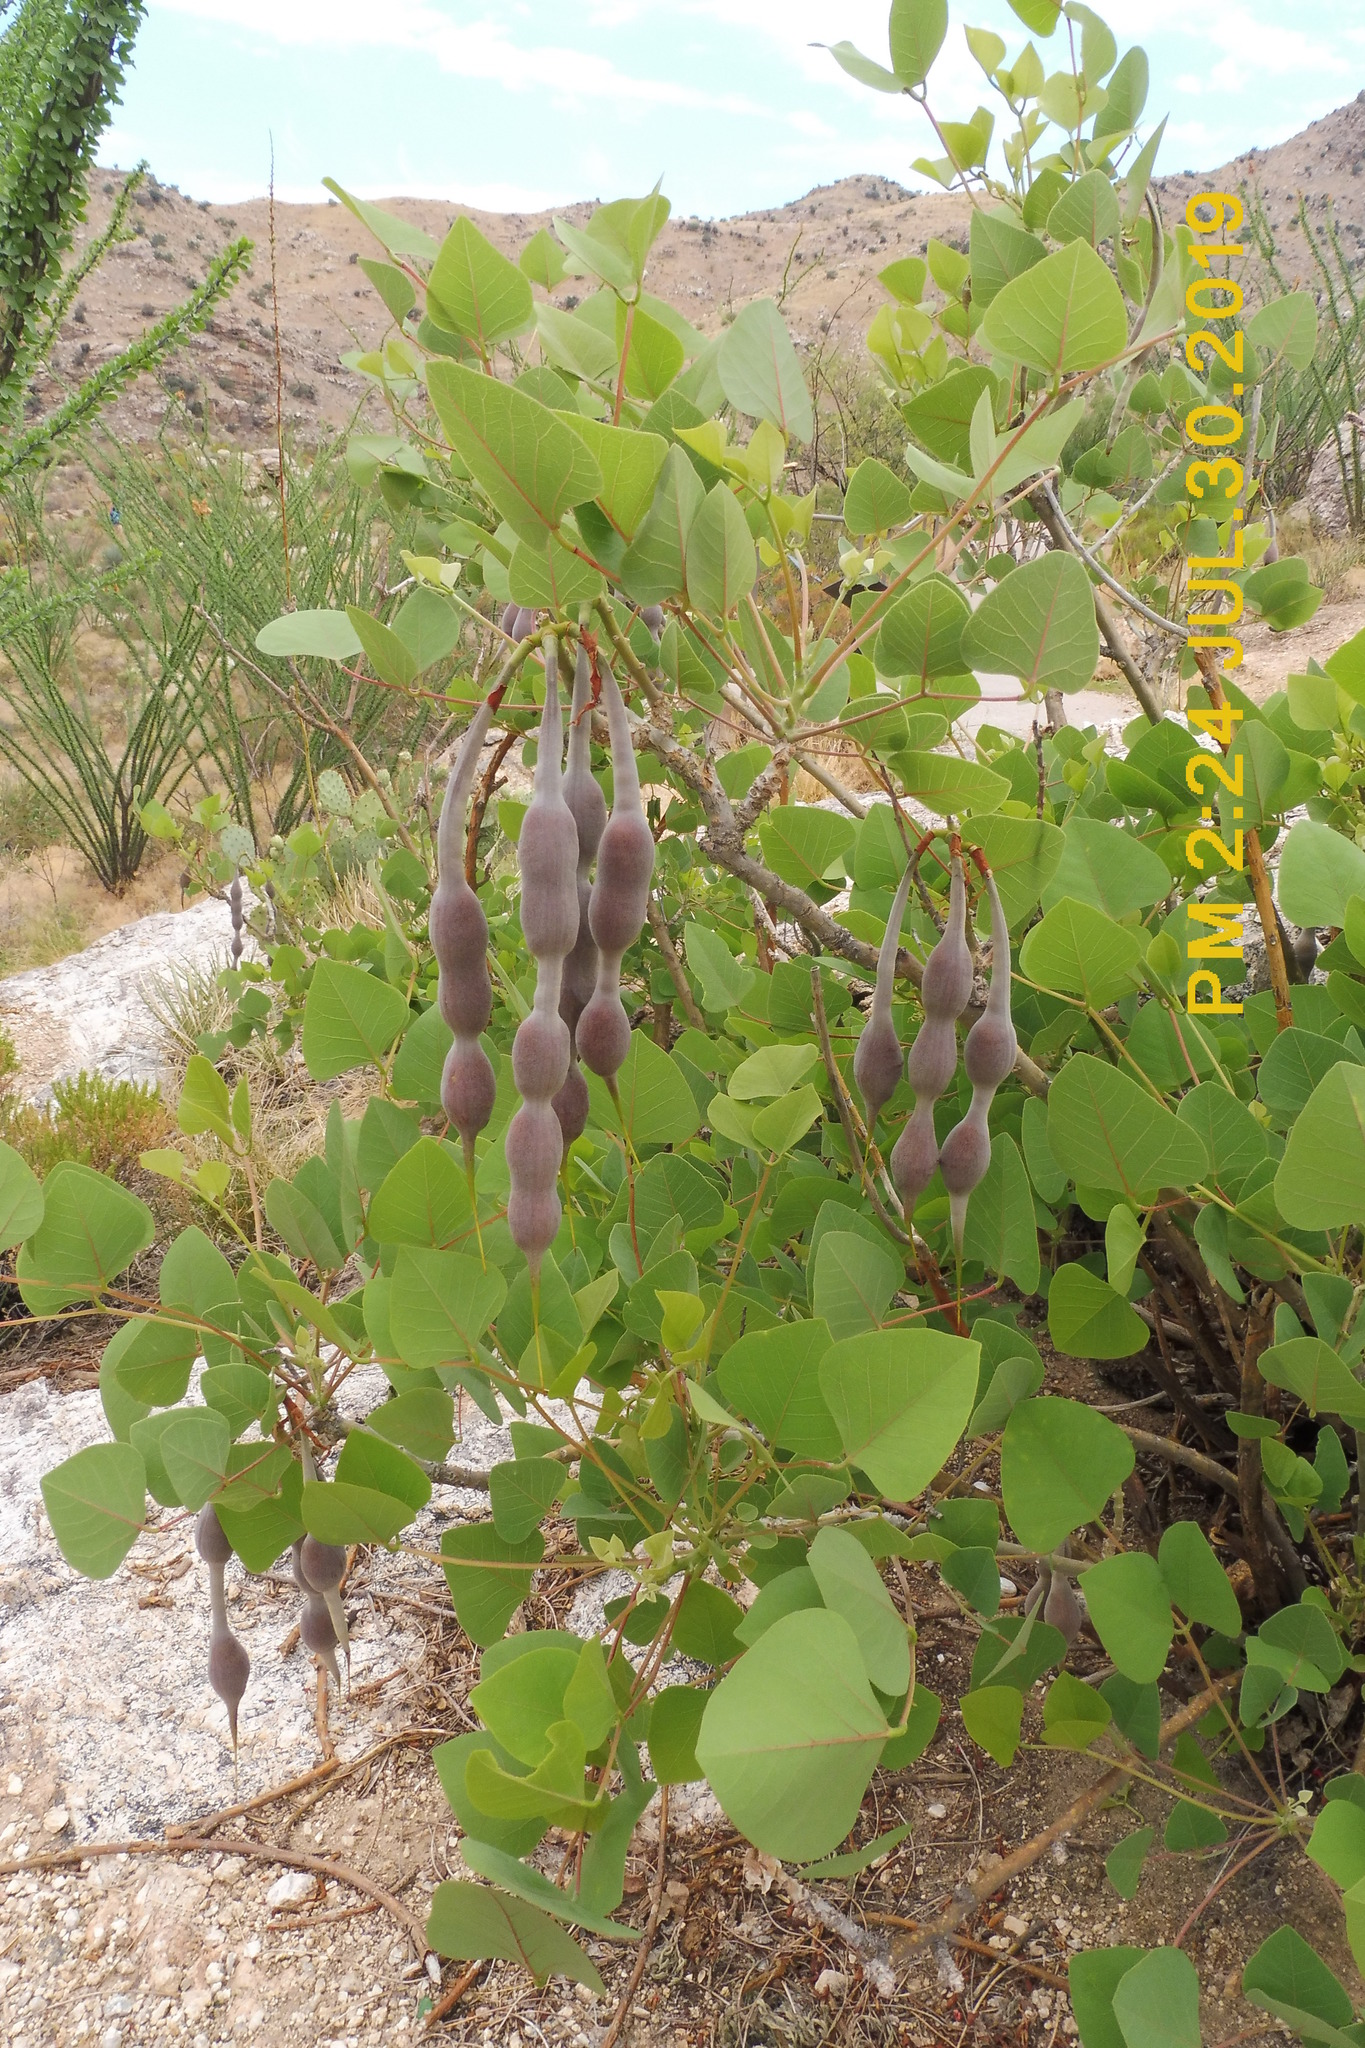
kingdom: Plantae
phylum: Tracheophyta
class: Magnoliopsida
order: Fabales
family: Fabaceae
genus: Erythrina
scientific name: Erythrina flabelliformis
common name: Chilicote
